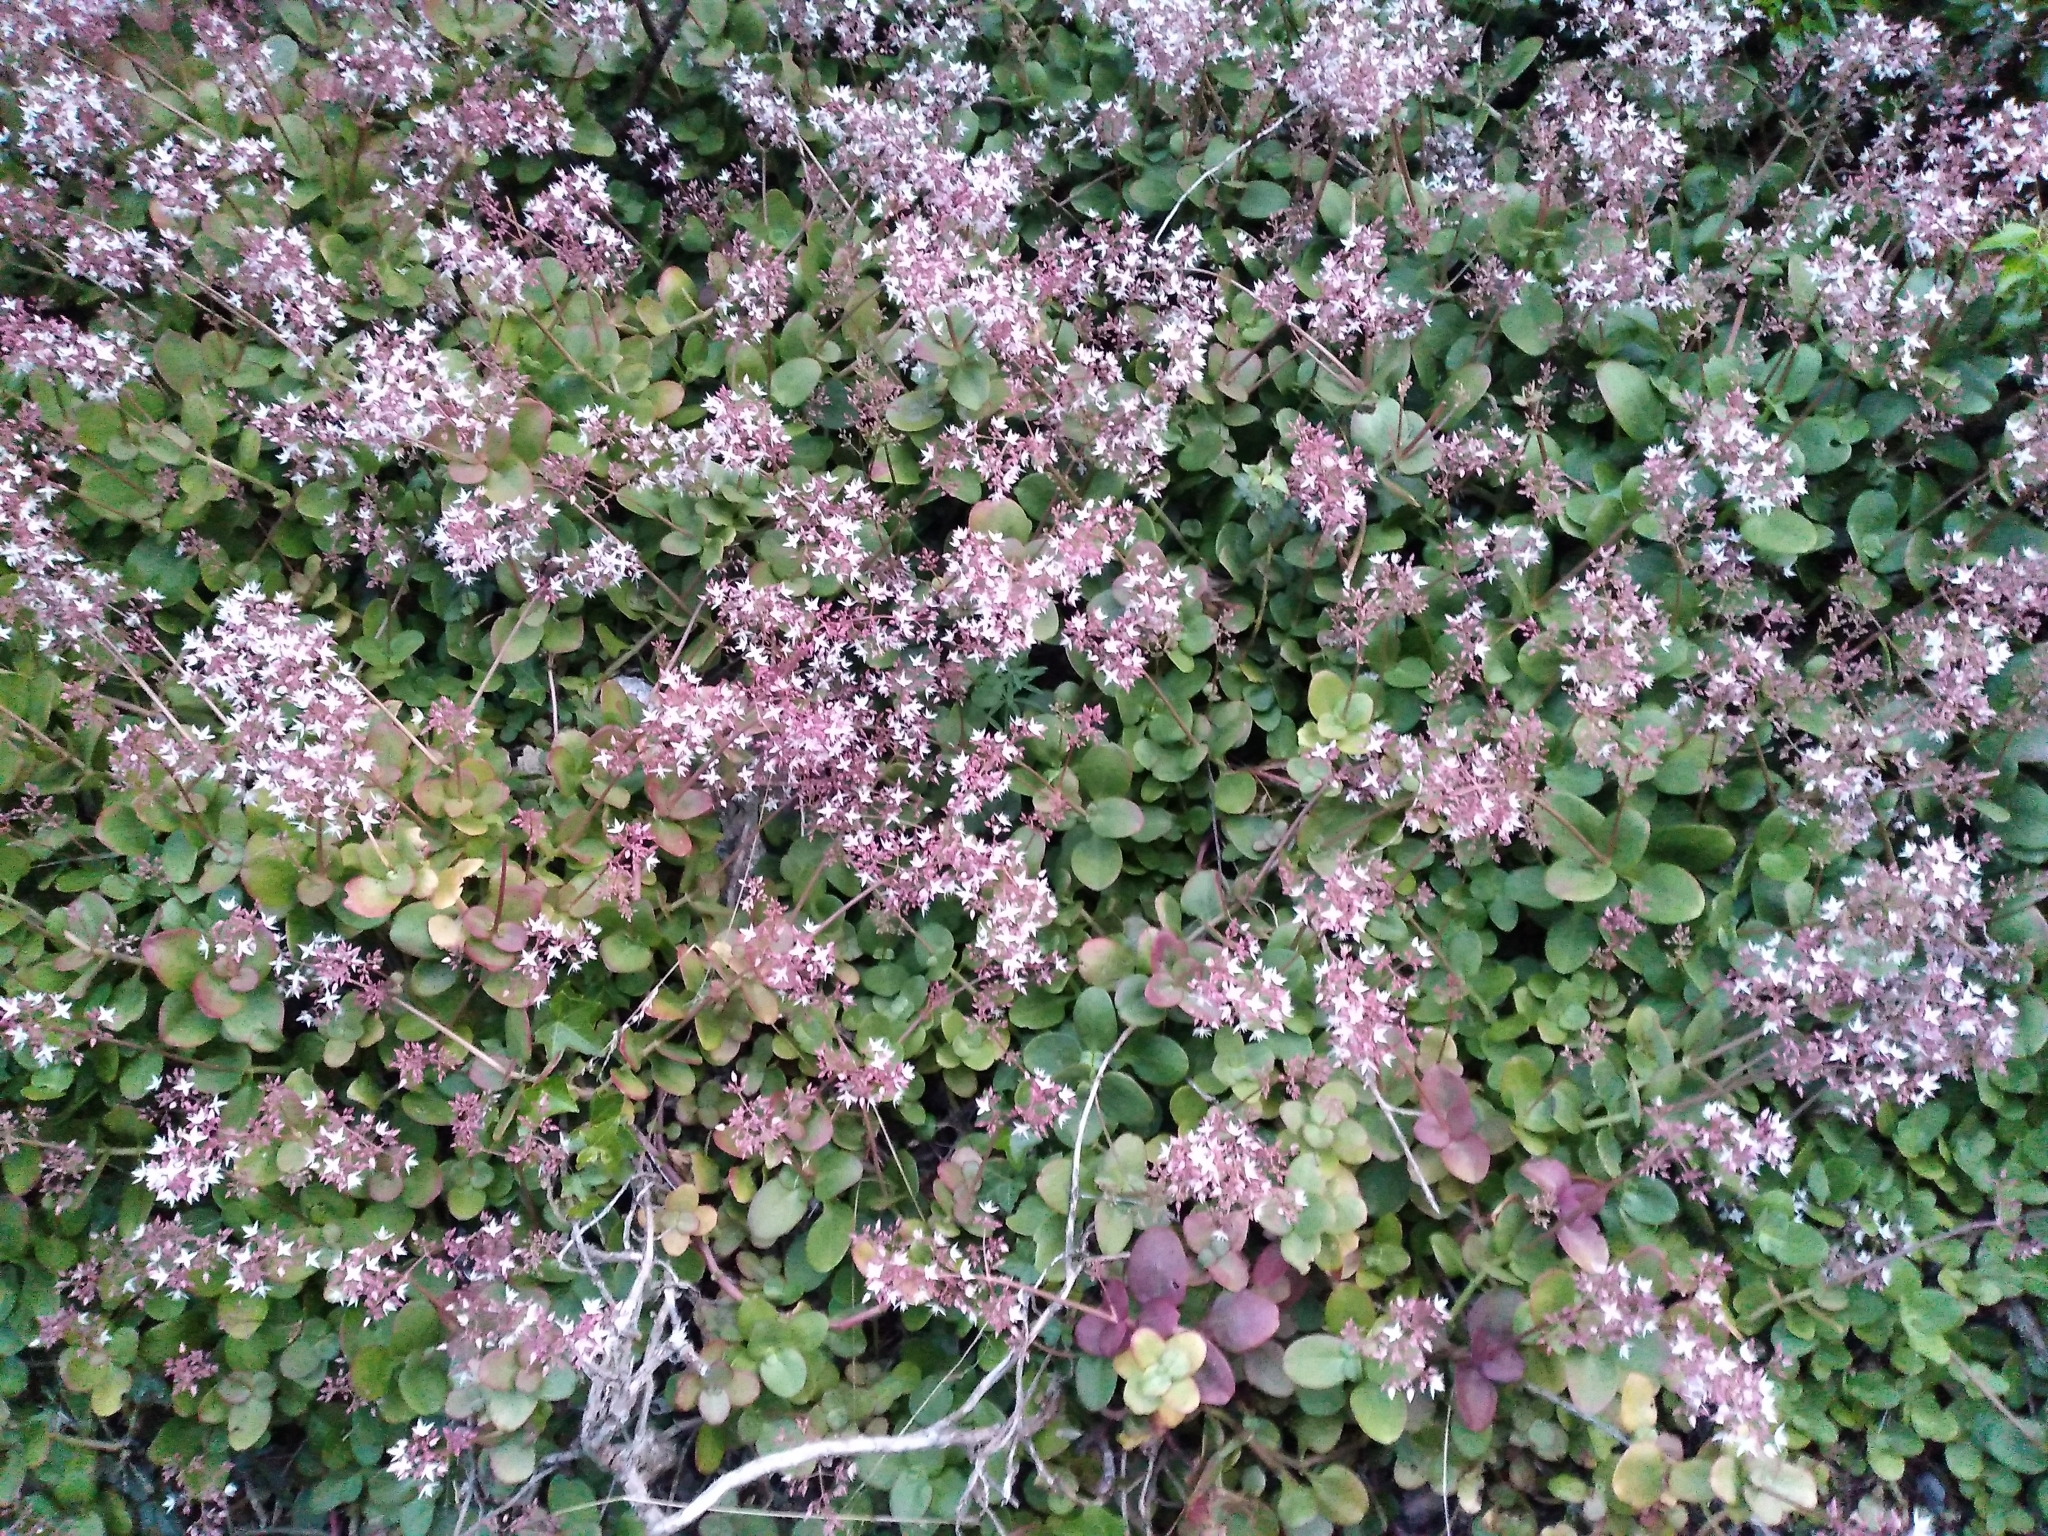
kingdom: Plantae
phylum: Tracheophyta
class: Magnoliopsida
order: Saxifragales
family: Crassulaceae
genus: Crassula
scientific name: Crassula multicava
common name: Cape province pygmyweed
